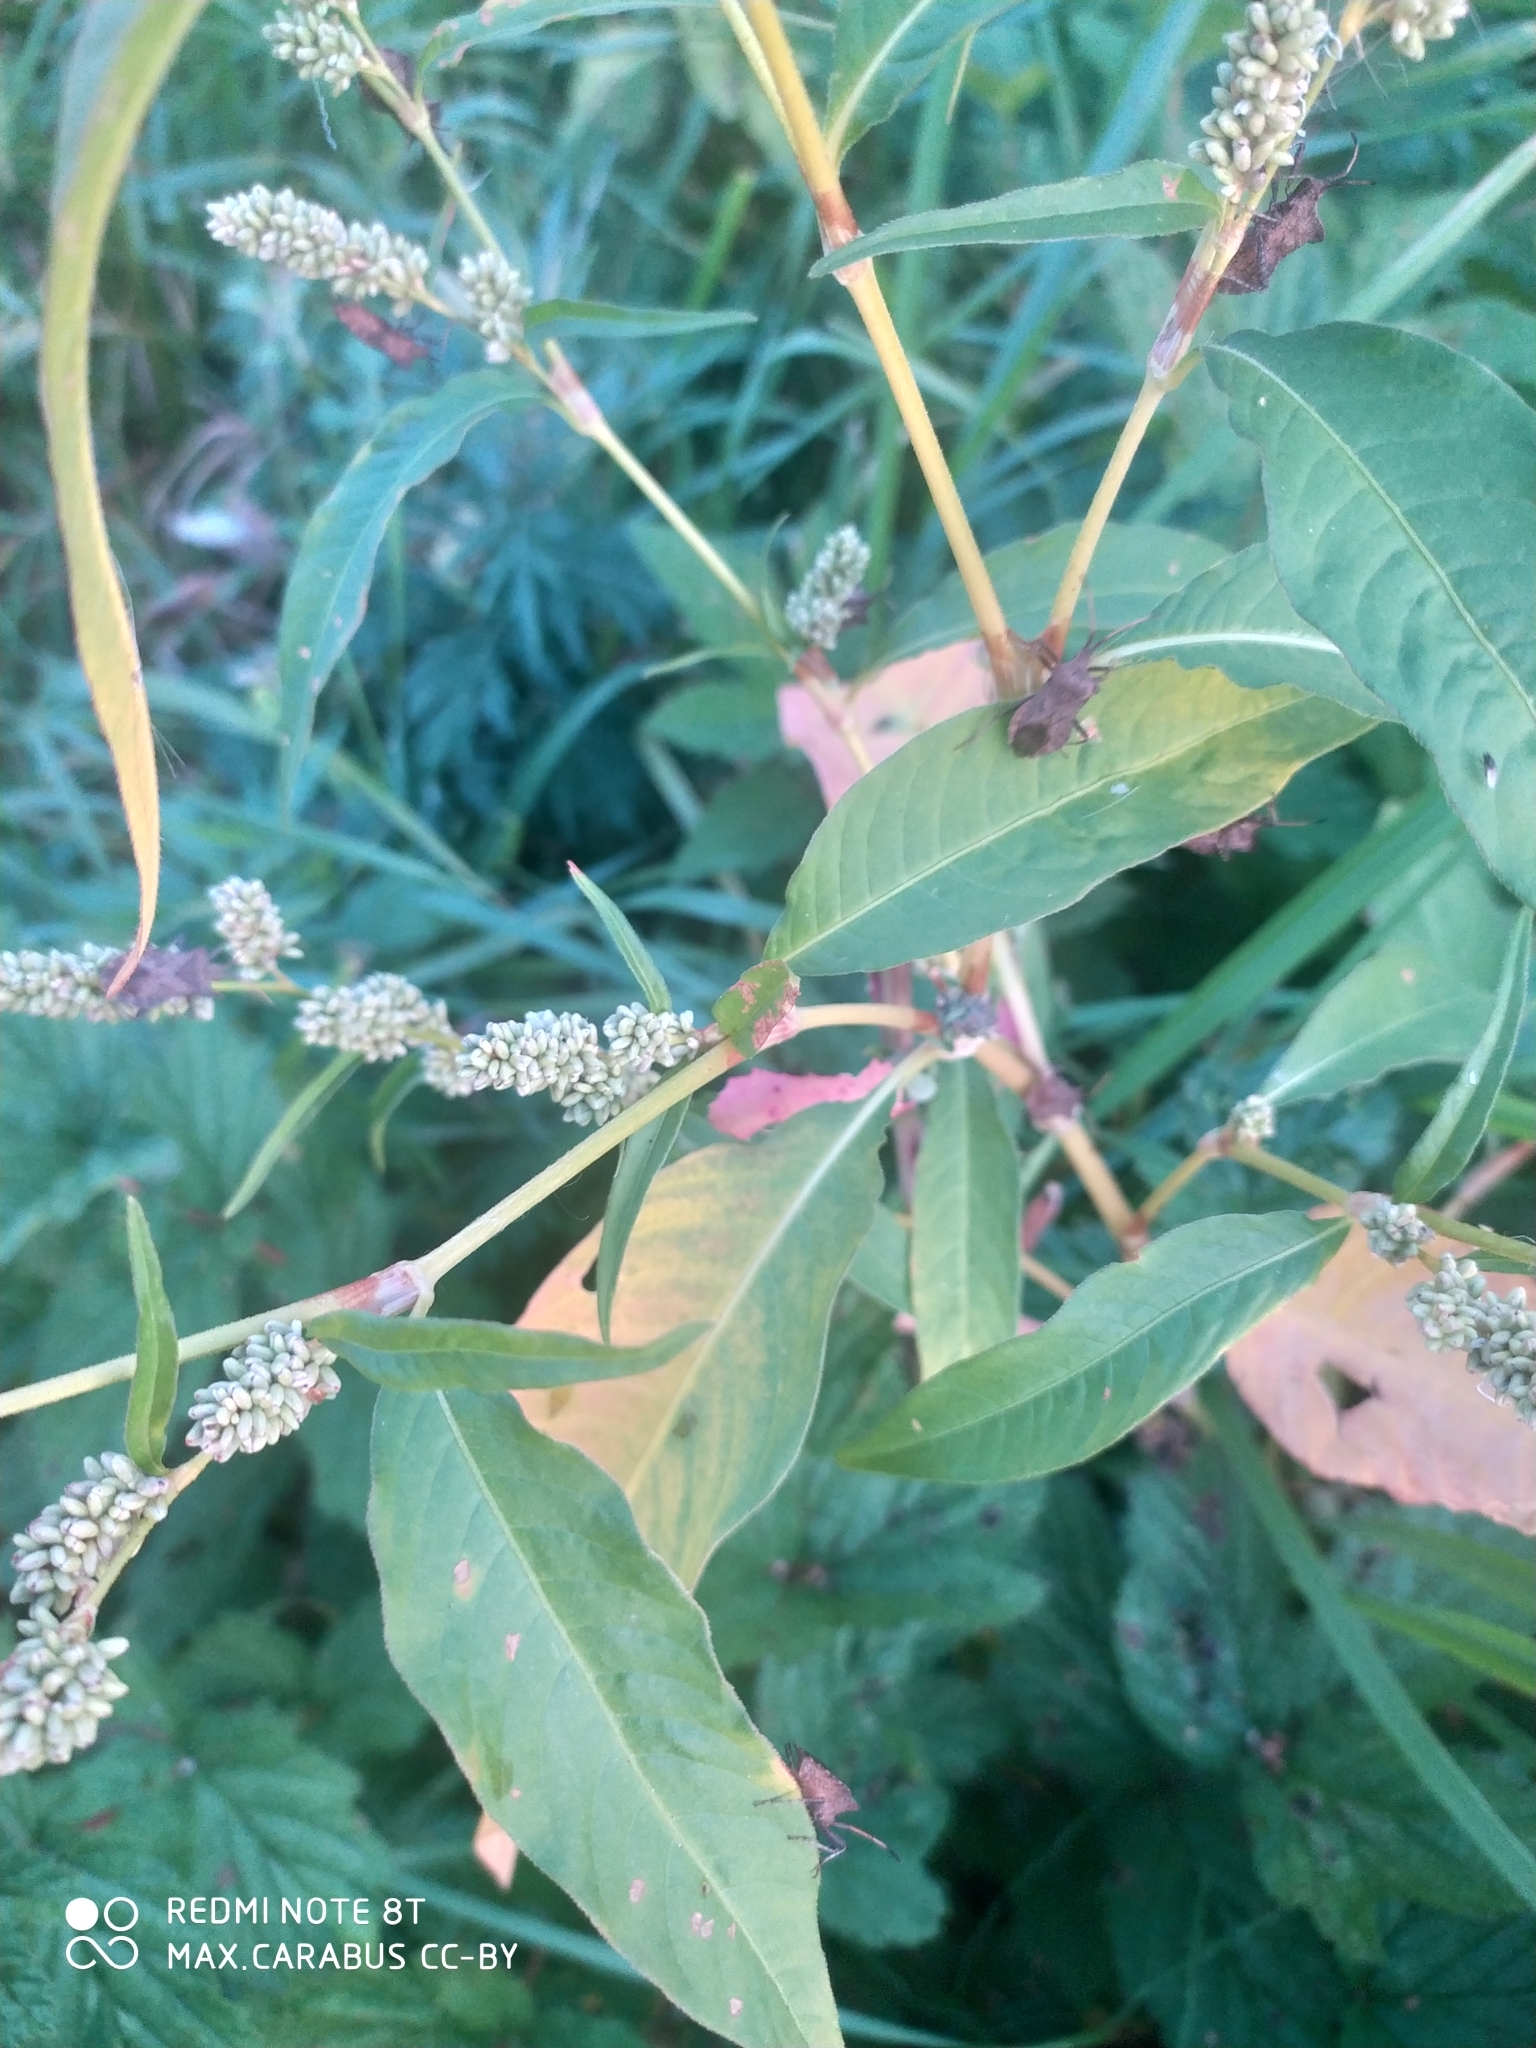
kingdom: Animalia
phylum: Arthropoda
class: Insecta
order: Hemiptera
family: Coreidae
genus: Coreus
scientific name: Coreus marginatus
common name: Dock bug
